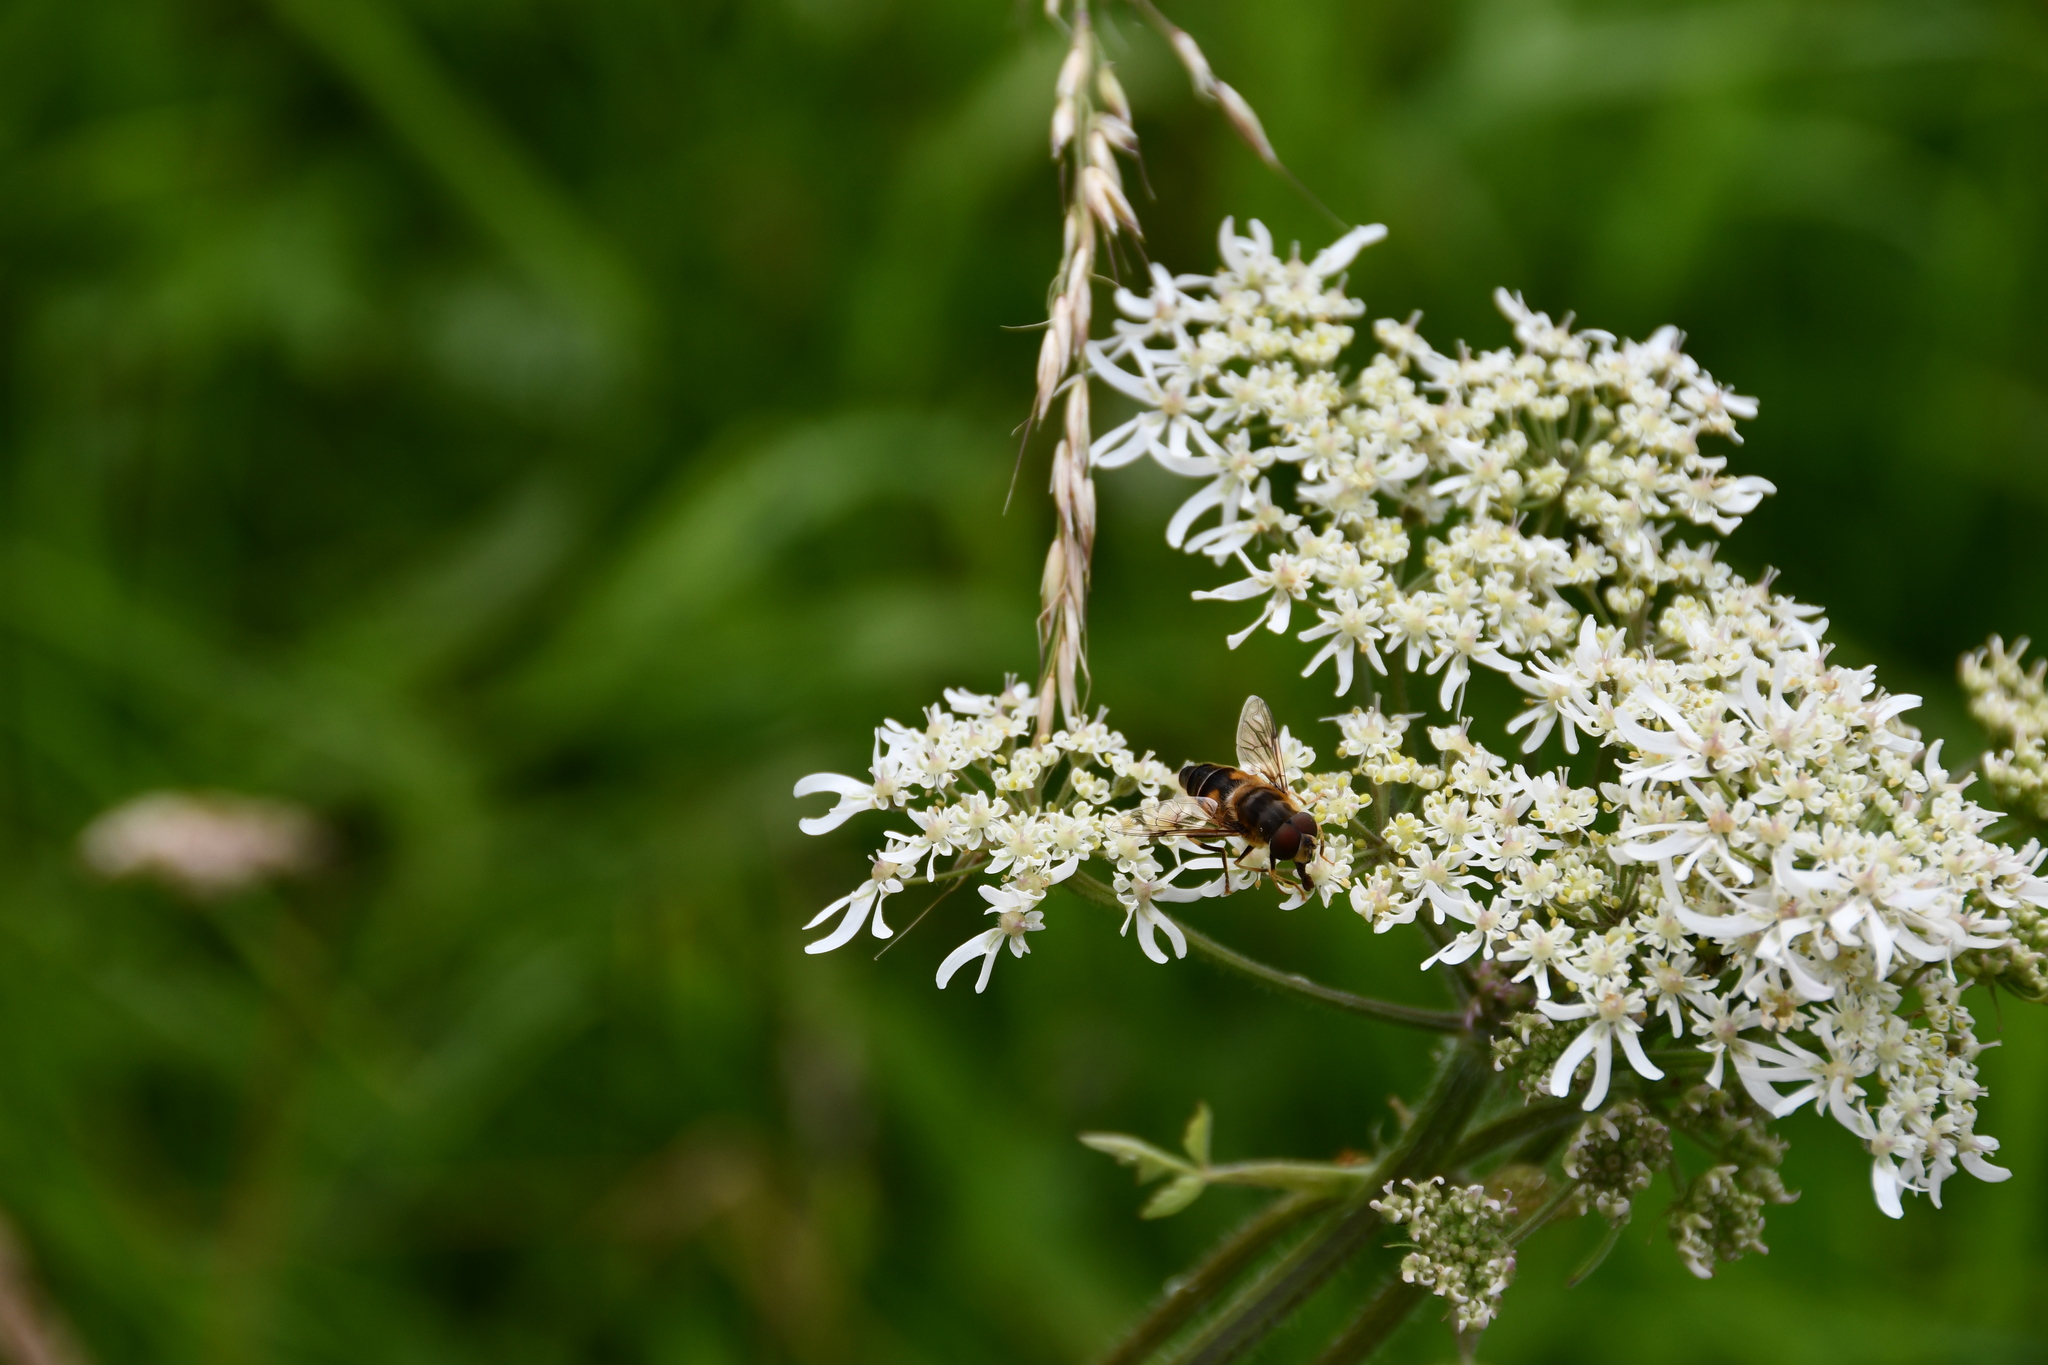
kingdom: Animalia
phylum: Arthropoda
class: Insecta
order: Diptera
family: Syrphidae
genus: Eristalis
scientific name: Eristalis pertinax
